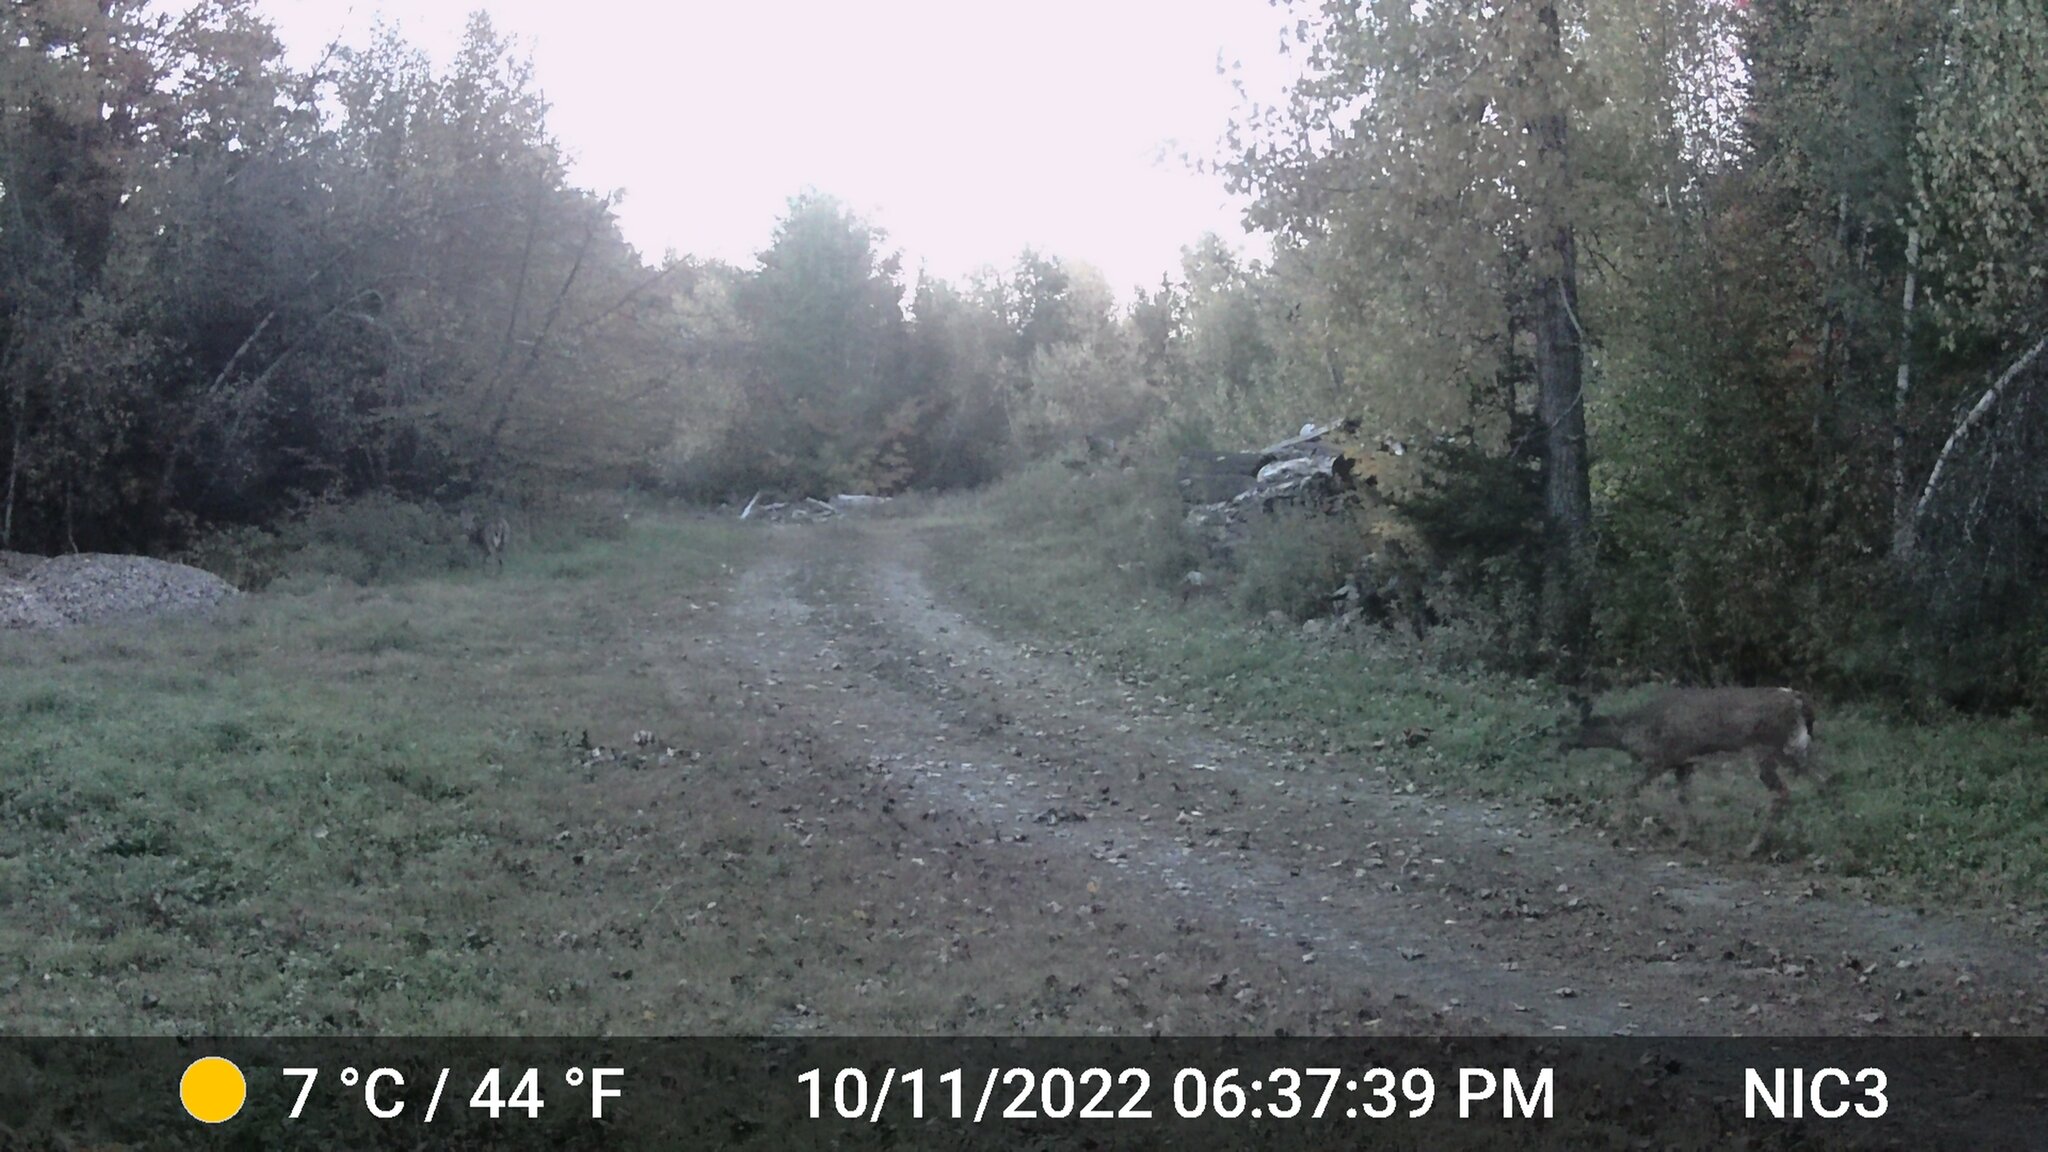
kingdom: Animalia
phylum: Chordata
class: Mammalia
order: Artiodactyla
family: Cervidae
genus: Odocoileus
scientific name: Odocoileus virginianus
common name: White-tailed deer
